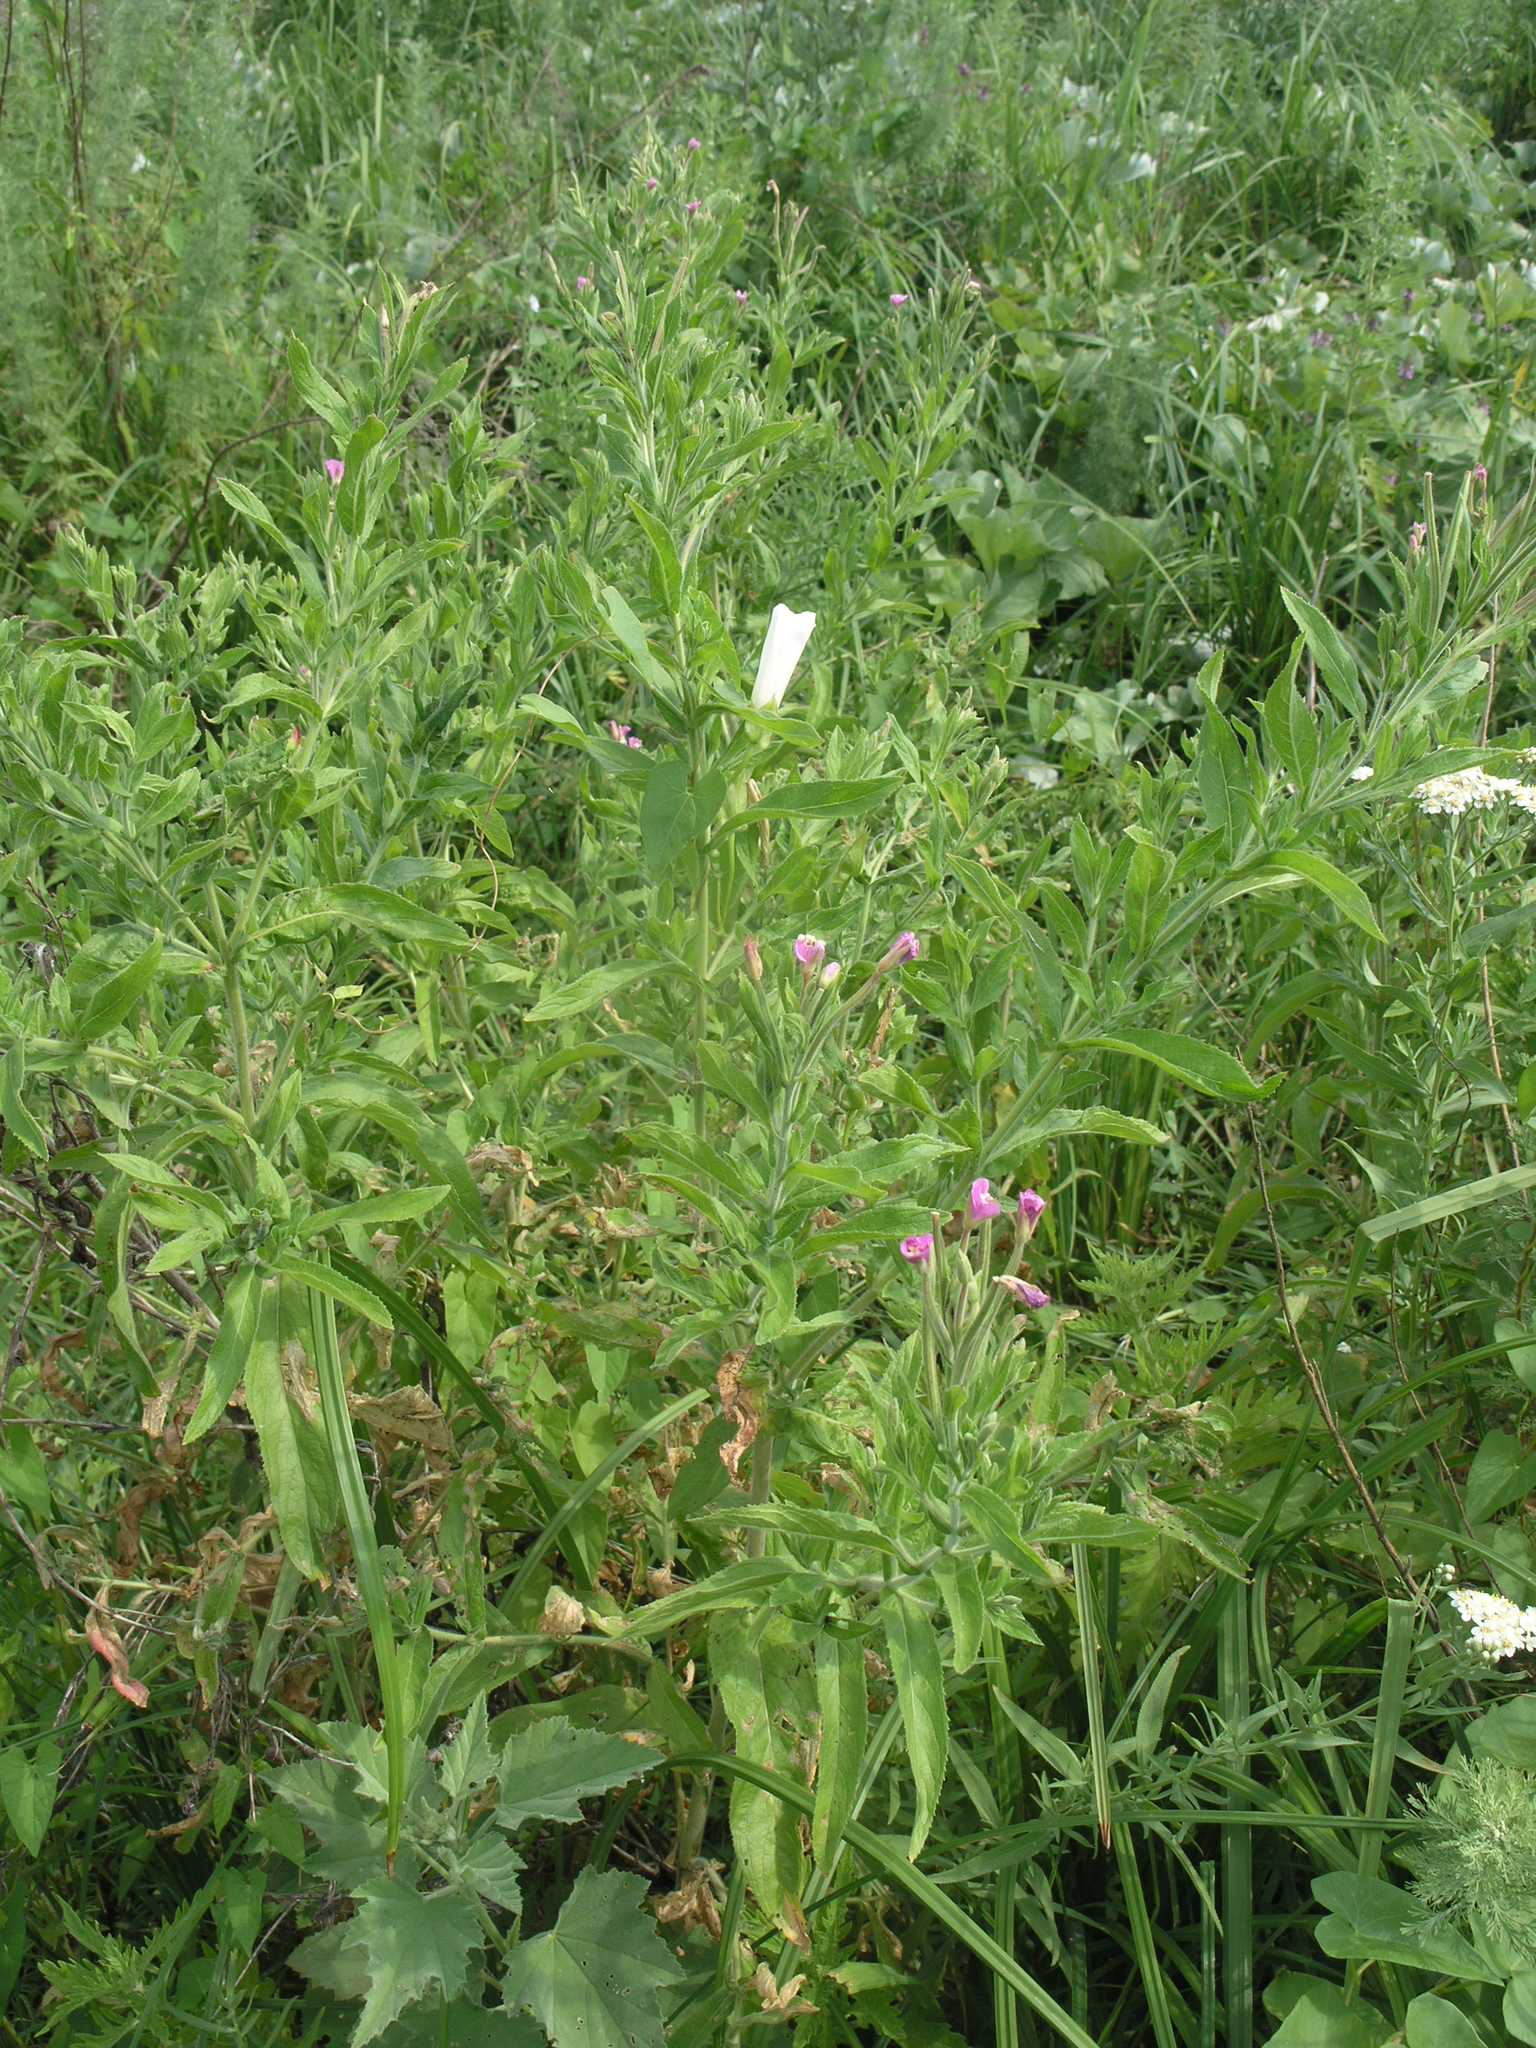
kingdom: Plantae
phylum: Tracheophyta
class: Magnoliopsida
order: Solanales
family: Convolvulaceae
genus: Calystegia
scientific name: Calystegia sepium
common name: Hedge bindweed
